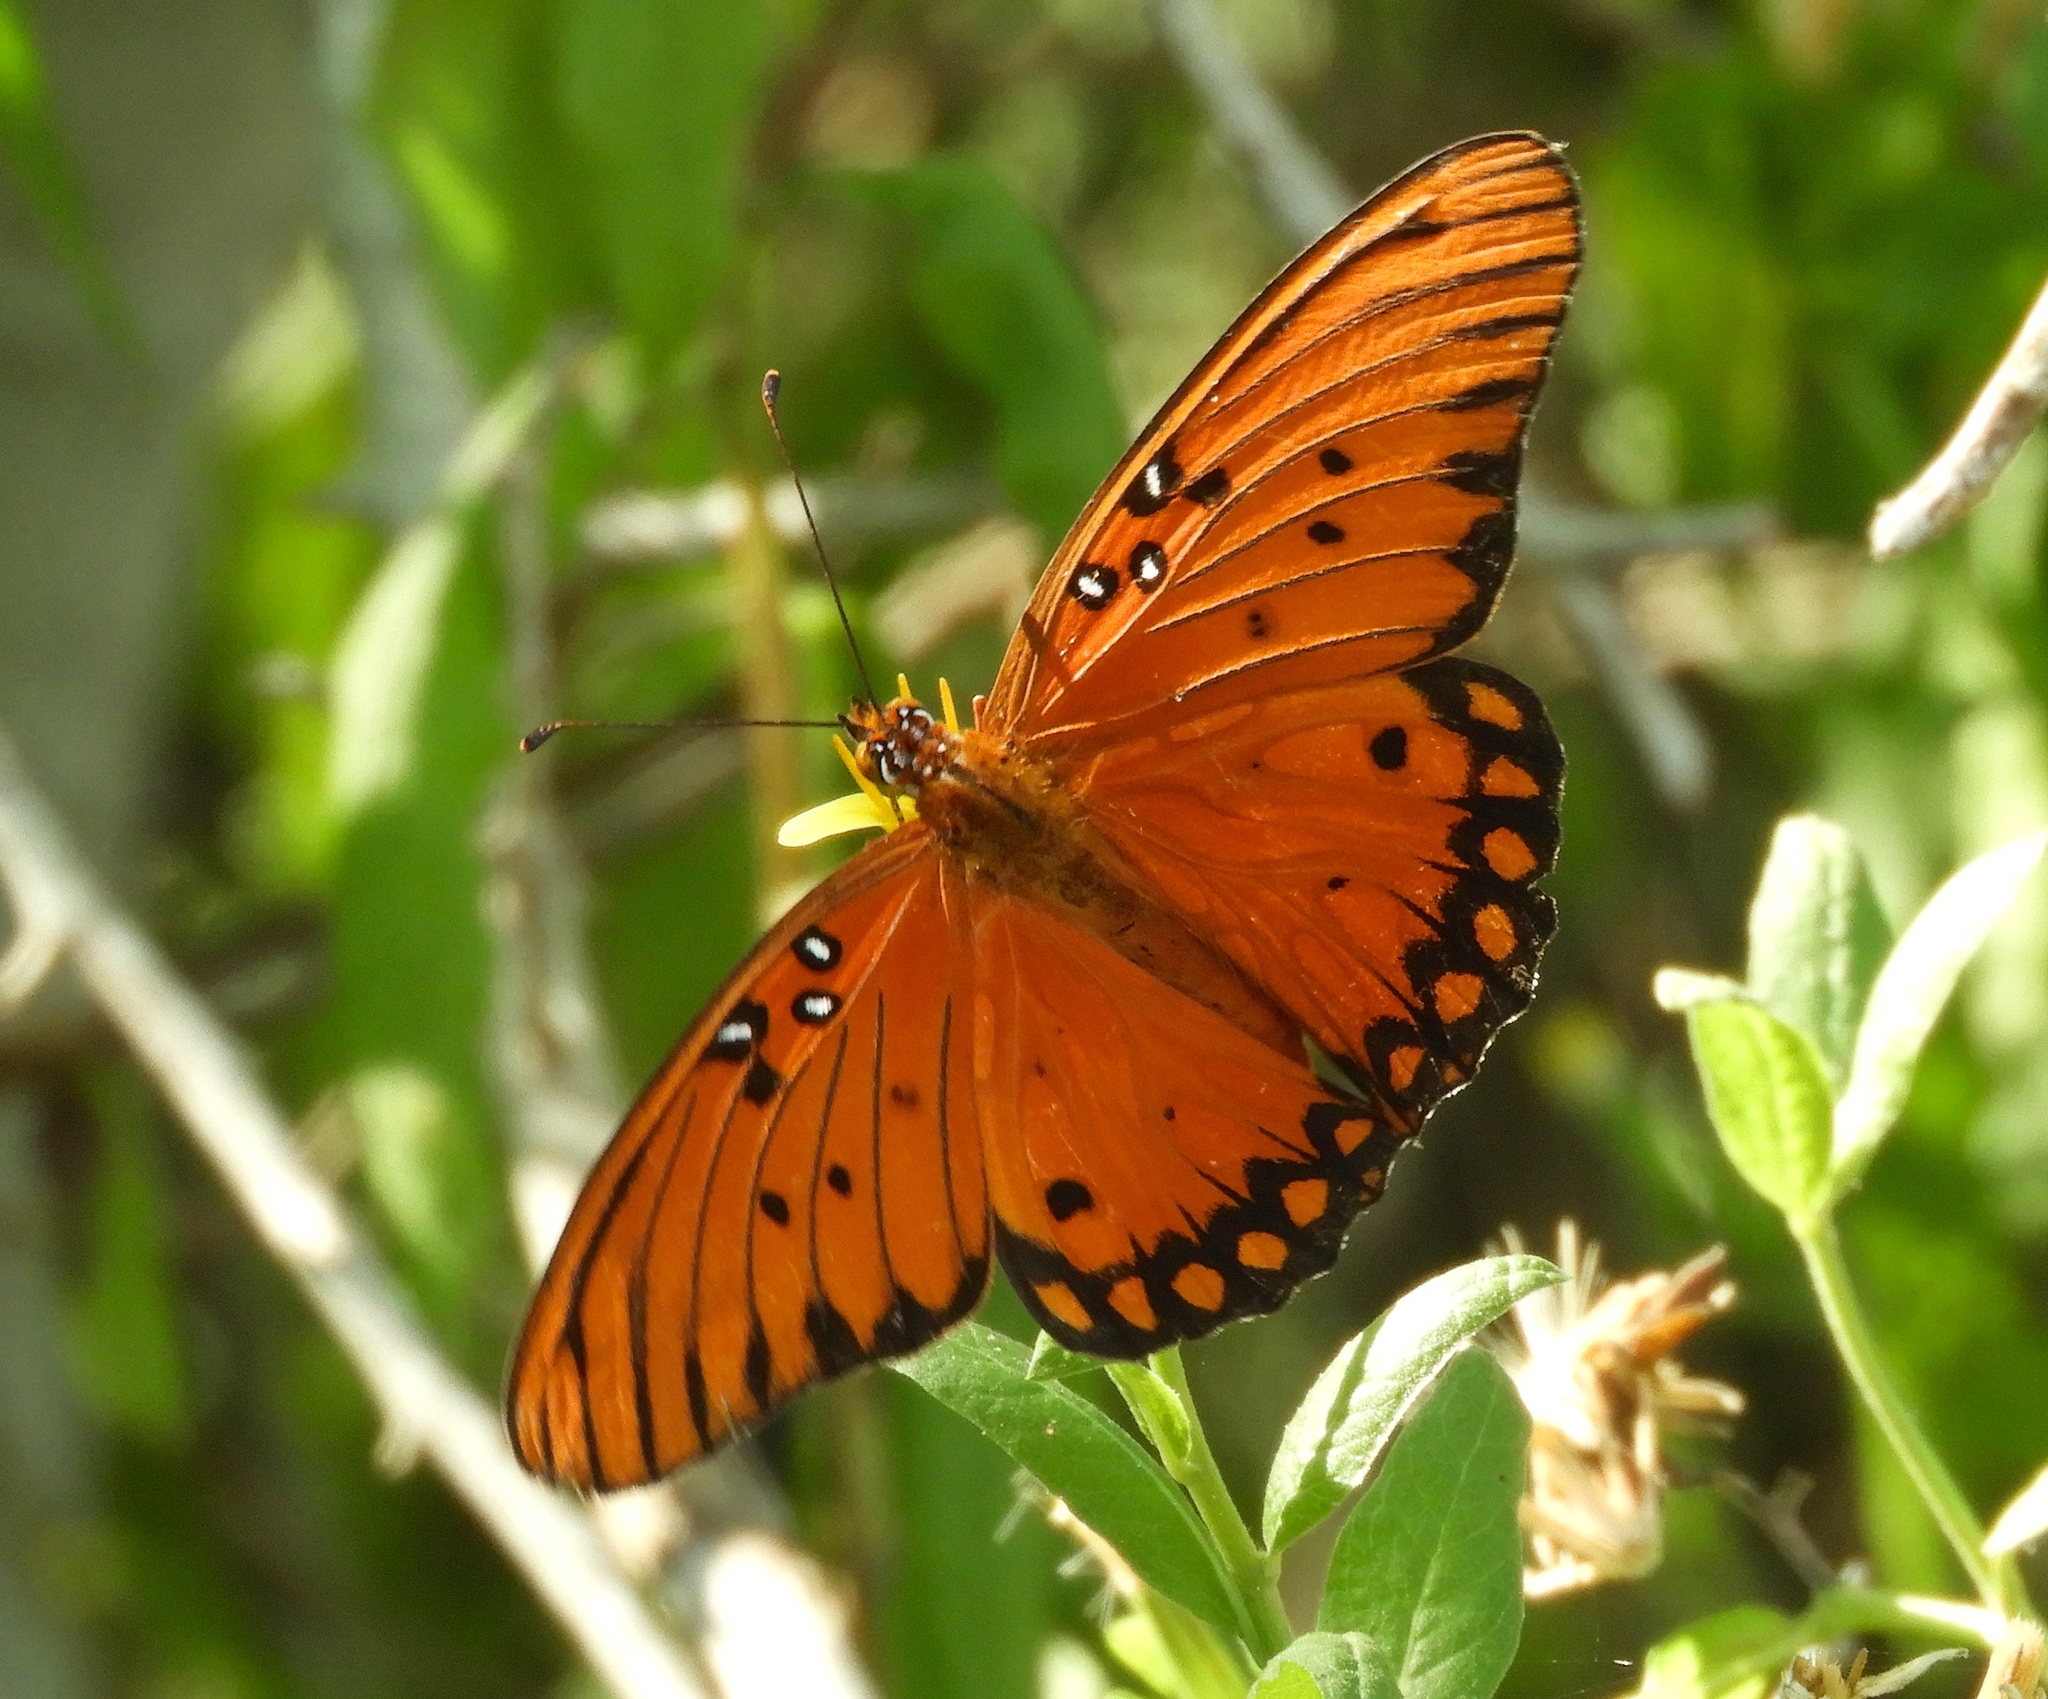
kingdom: Animalia
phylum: Arthropoda
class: Insecta
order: Lepidoptera
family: Nymphalidae
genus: Dione
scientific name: Dione vanillae
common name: Gulf fritillary
